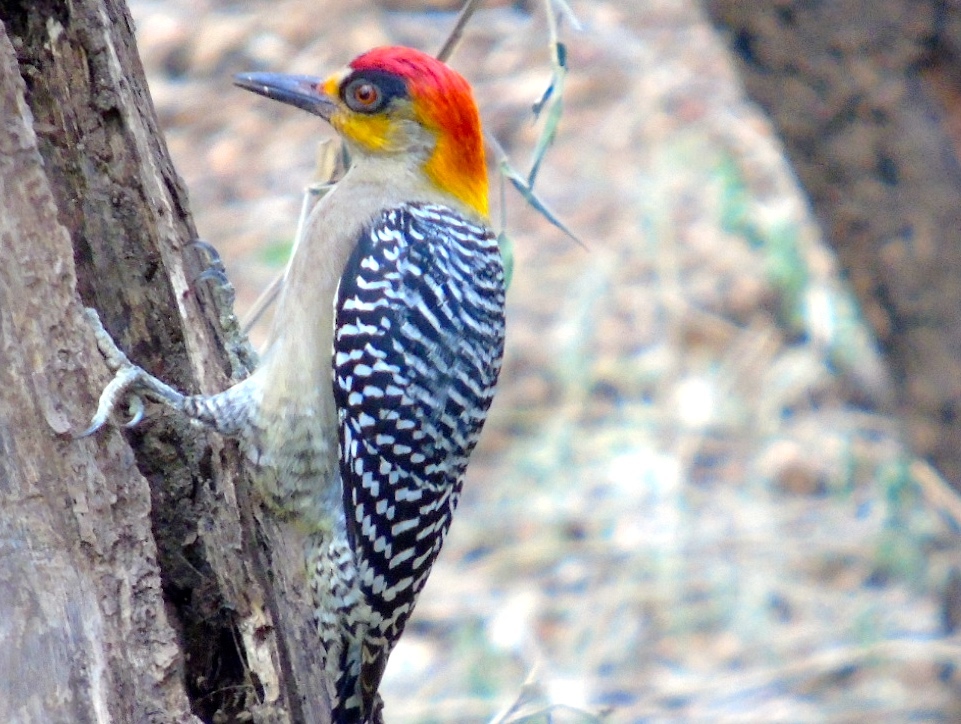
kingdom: Animalia
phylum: Chordata
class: Aves
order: Piciformes
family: Picidae
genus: Melanerpes
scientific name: Melanerpes chrysogenys
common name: Golden-cheeked woodpecker
